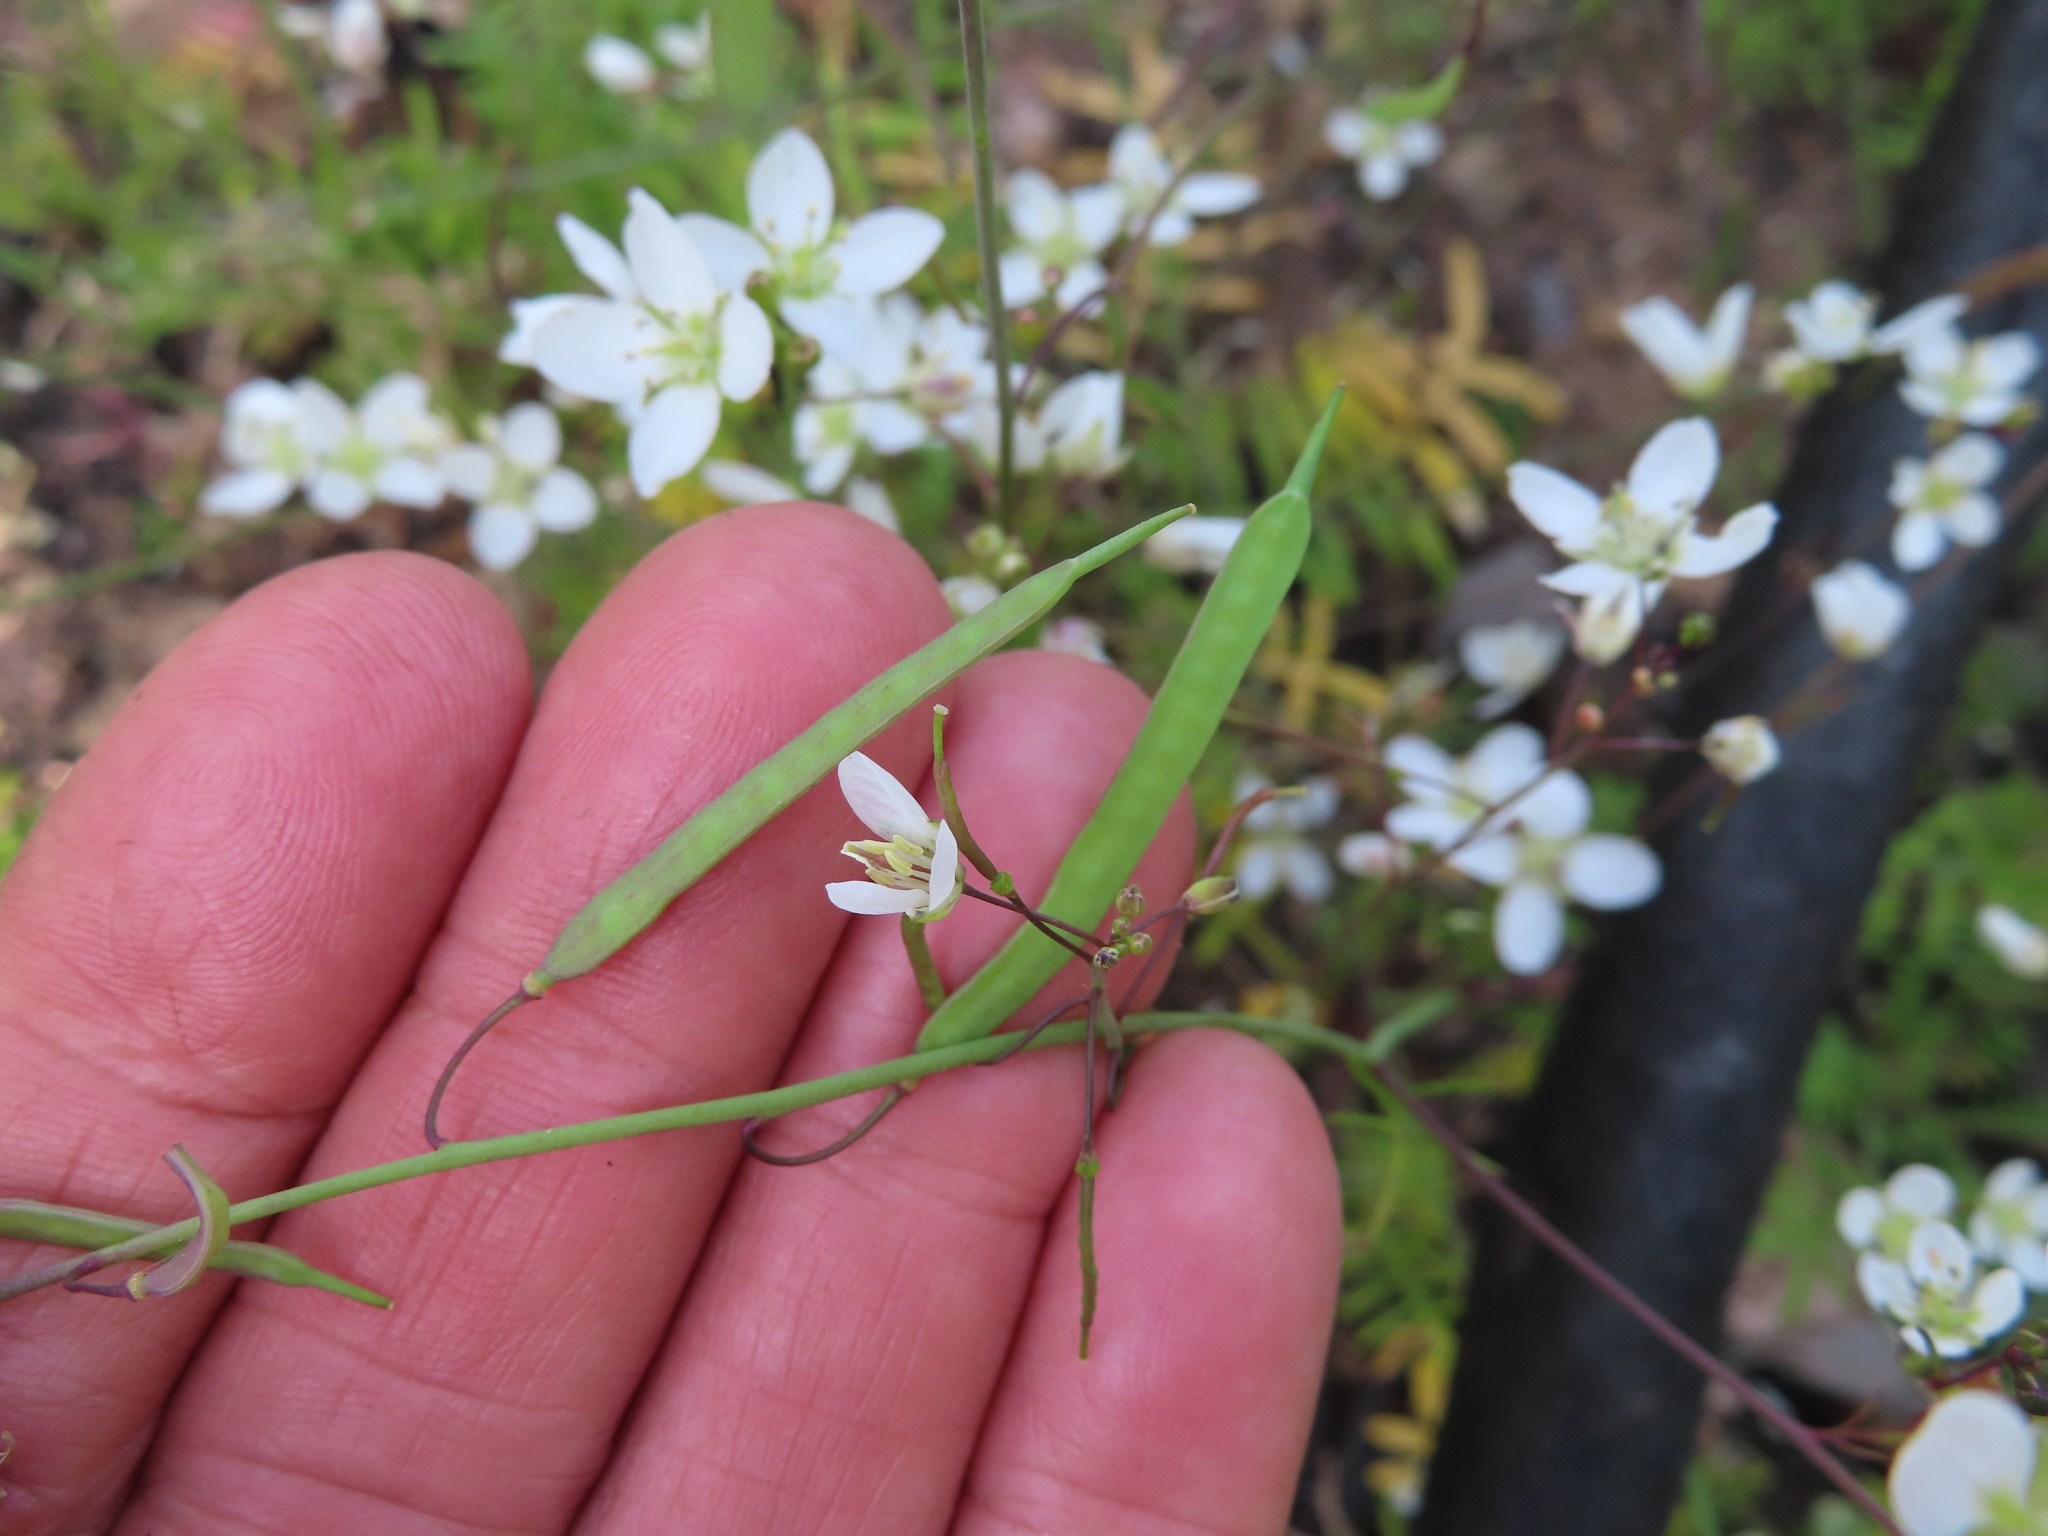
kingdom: Plantae
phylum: Tracheophyta
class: Magnoliopsida
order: Brassicales
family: Brassicaceae
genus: Heliophila
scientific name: Heliophila meyeri
